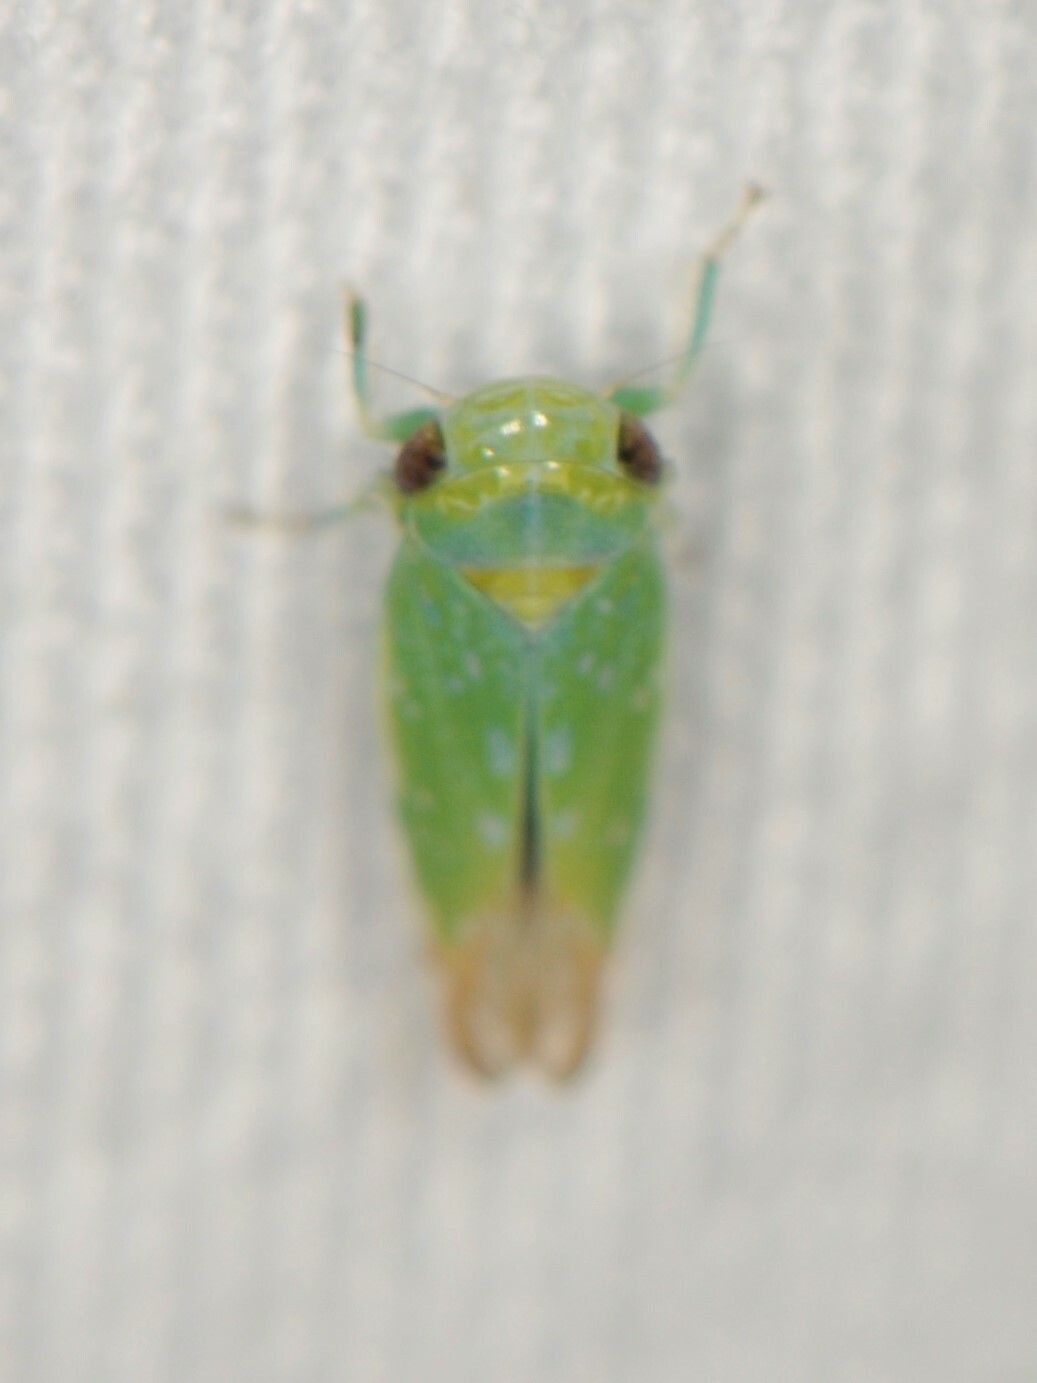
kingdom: Animalia
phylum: Arthropoda
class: Insecta
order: Hemiptera
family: Cicadellidae
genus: Opsius
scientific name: Opsius stactogalus
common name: Leafhopper
